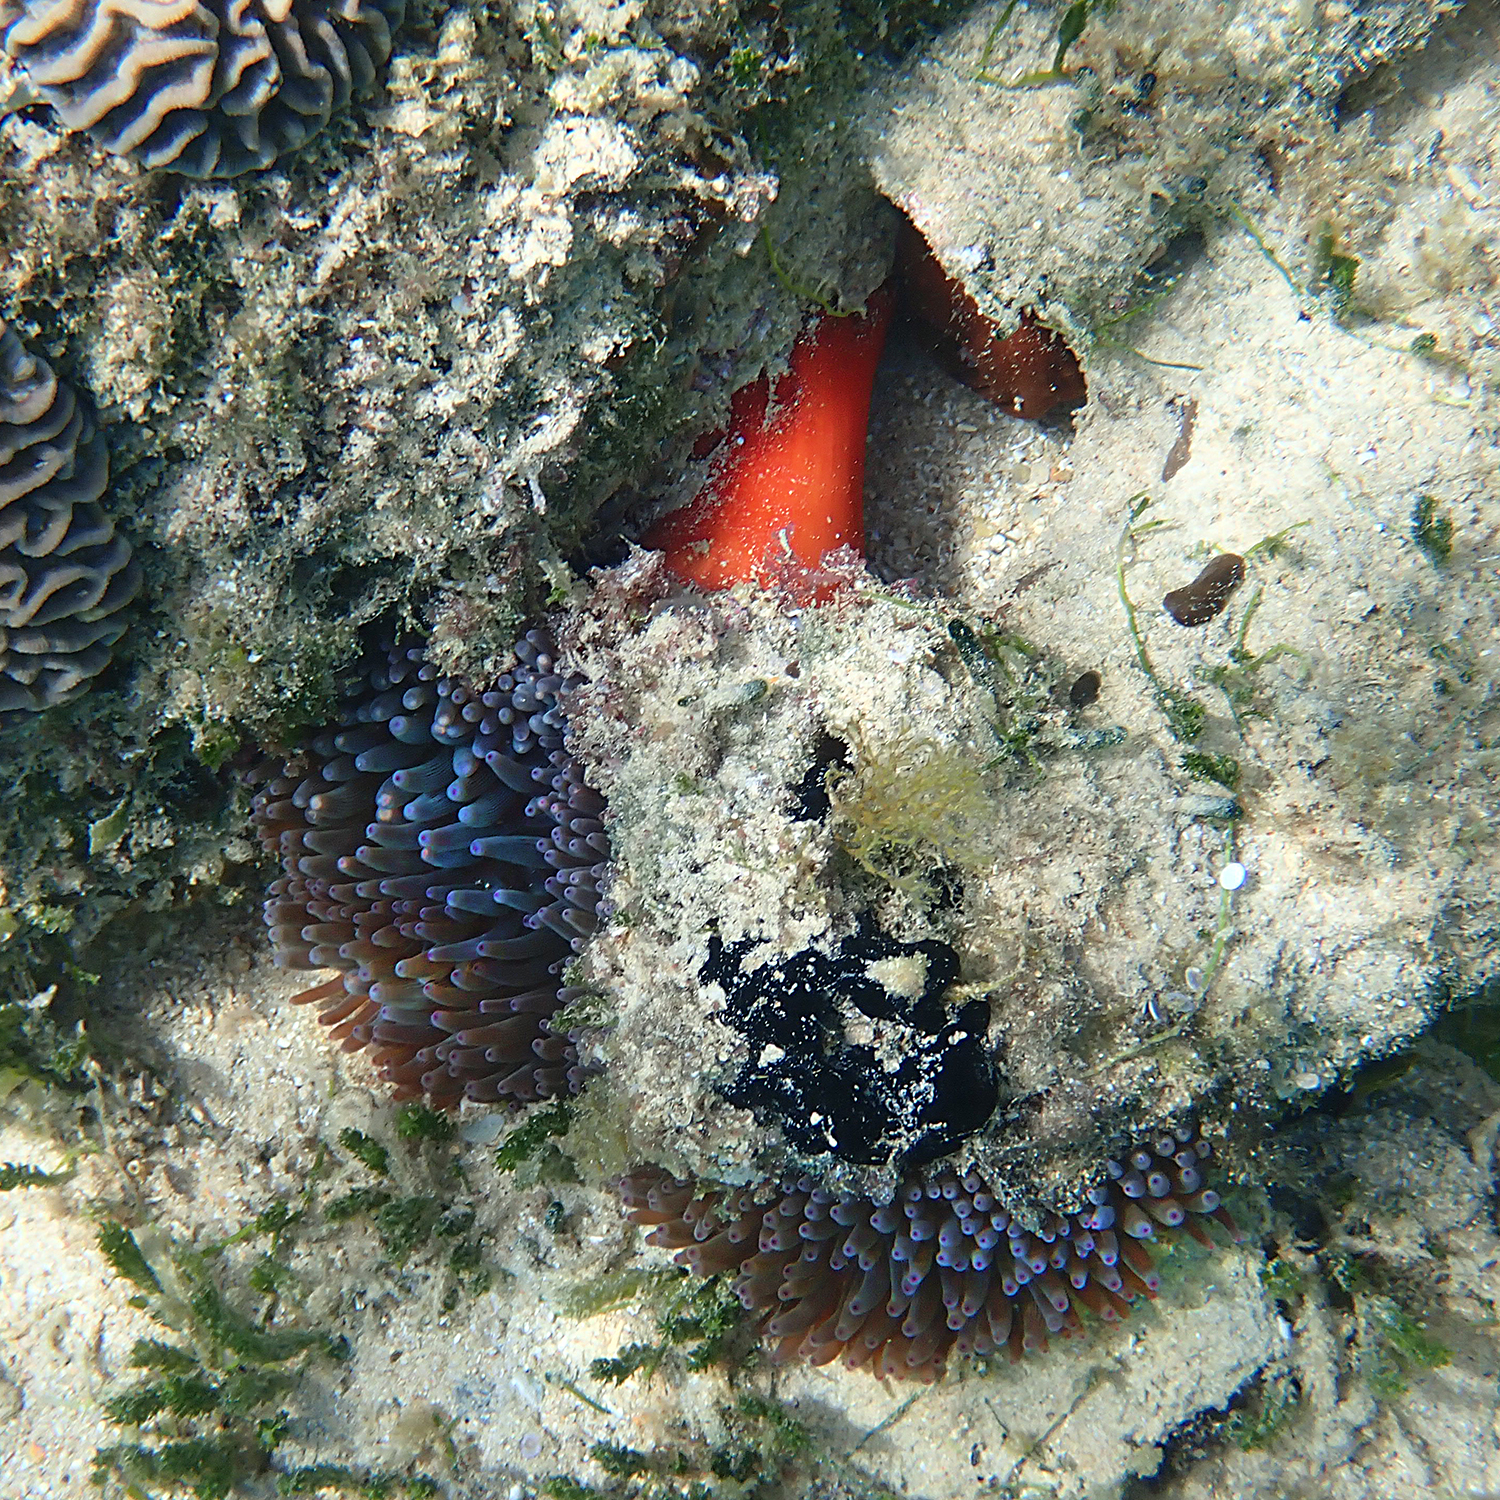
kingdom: Animalia
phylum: Cnidaria
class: Anthozoa
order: Actiniaria
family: Actiniidae
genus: Entacmaea
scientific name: Entacmaea quadricolor
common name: Bulb tentacle sea anemone
